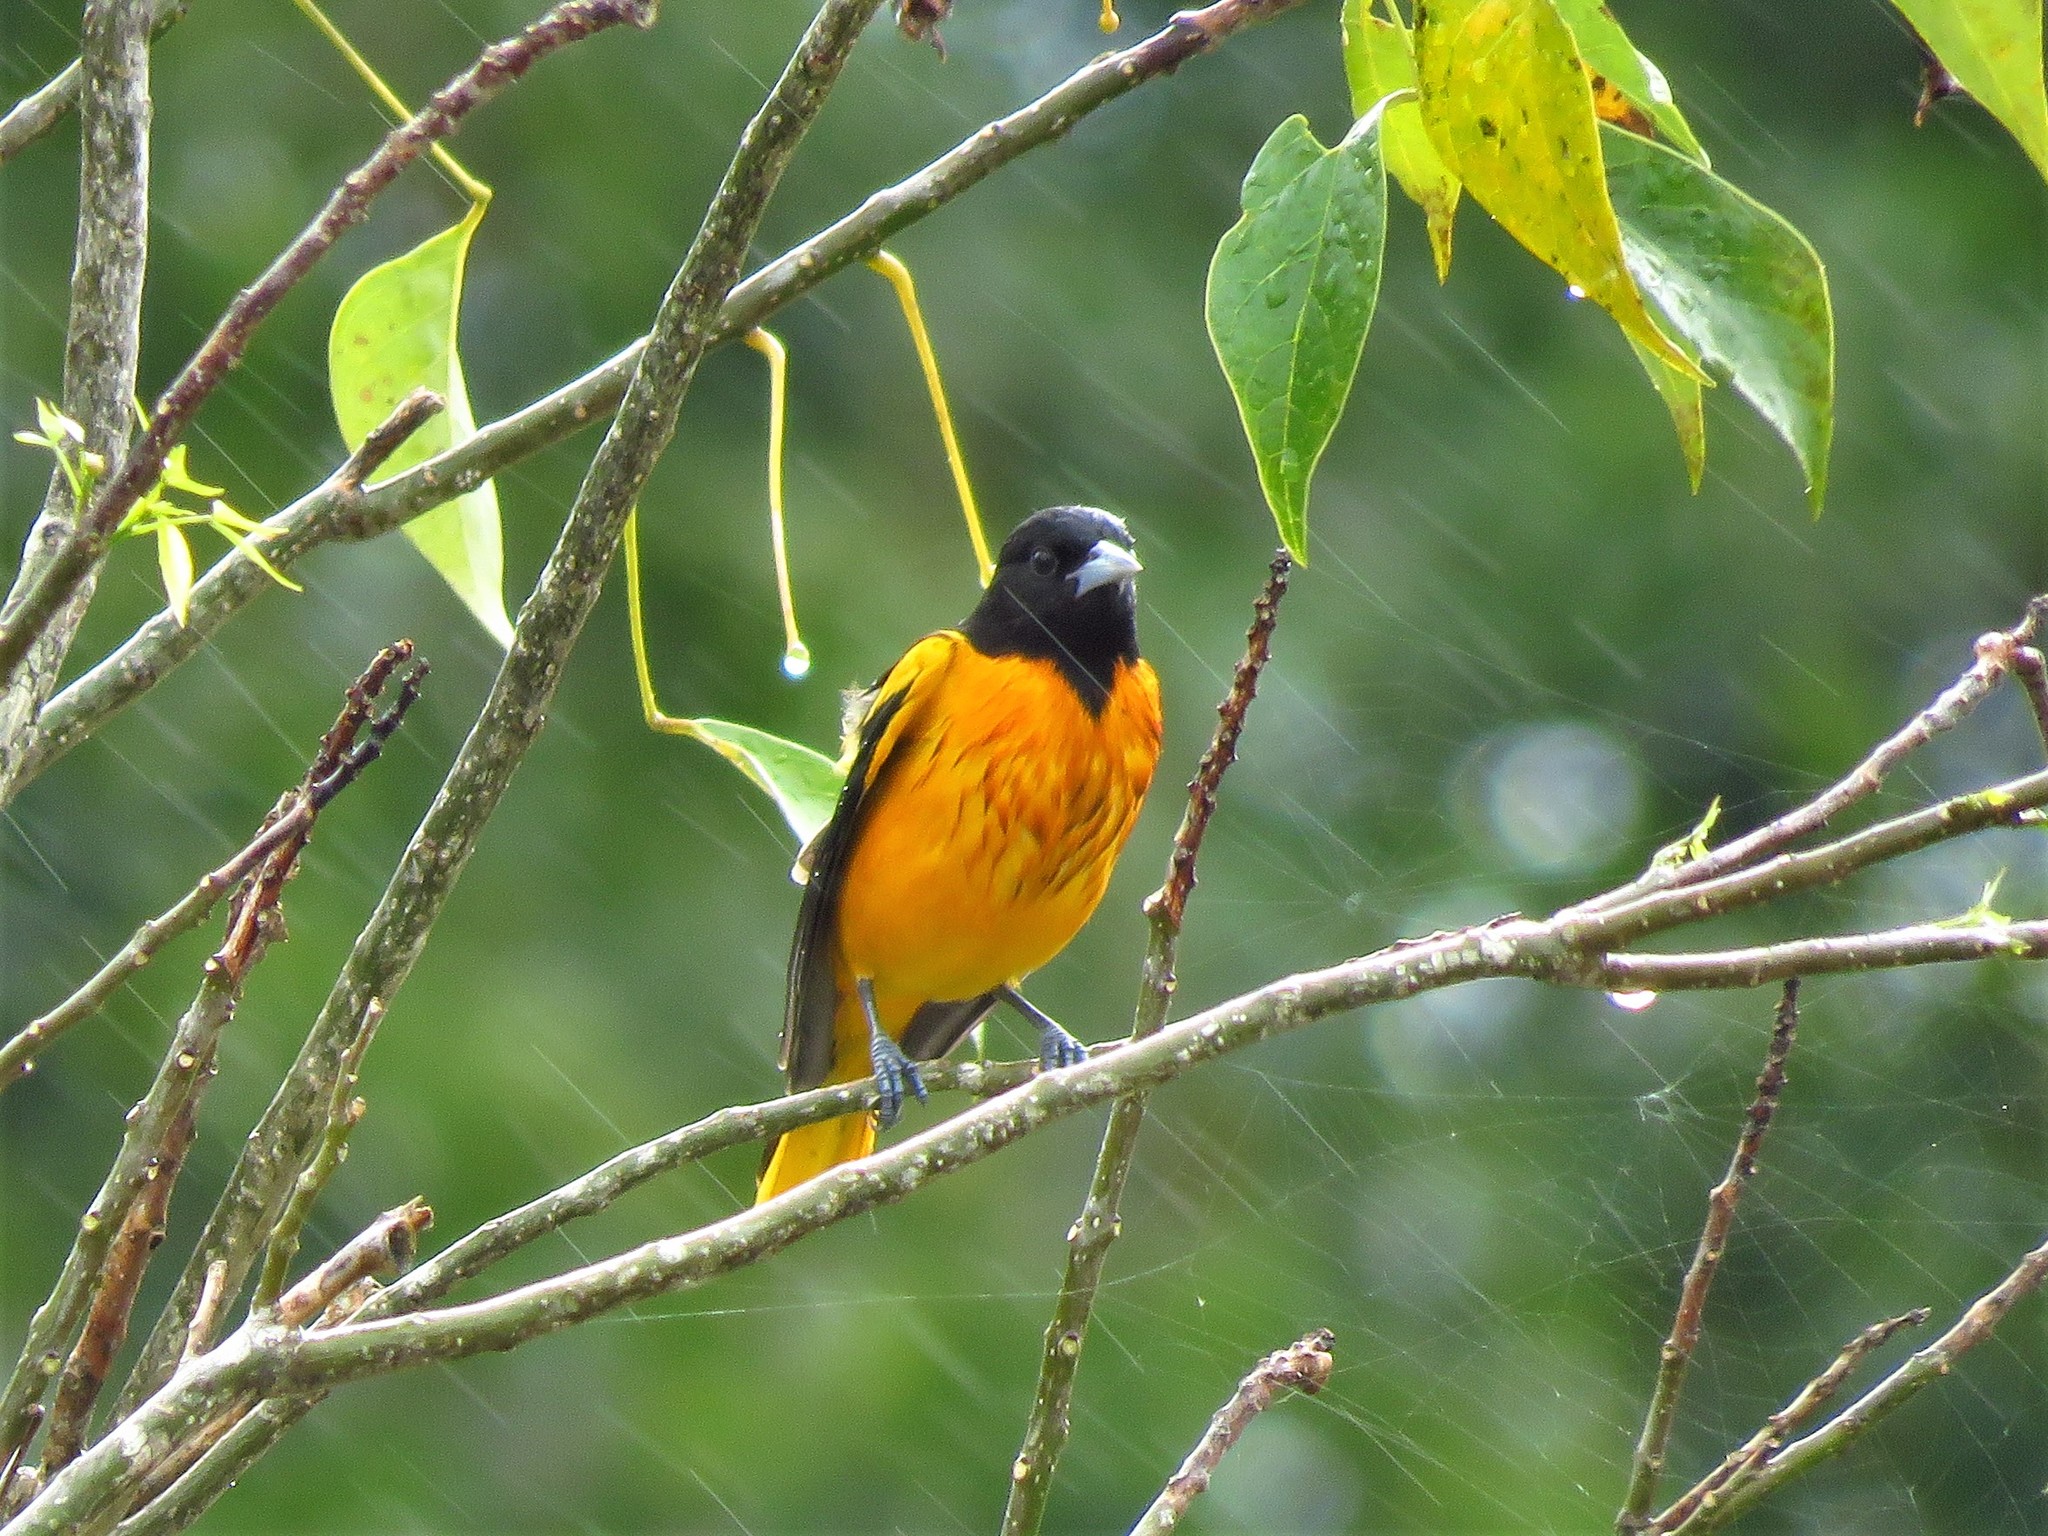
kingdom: Animalia
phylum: Chordata
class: Aves
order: Passeriformes
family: Icteridae
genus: Icterus
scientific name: Icterus galbula
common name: Baltimore oriole
